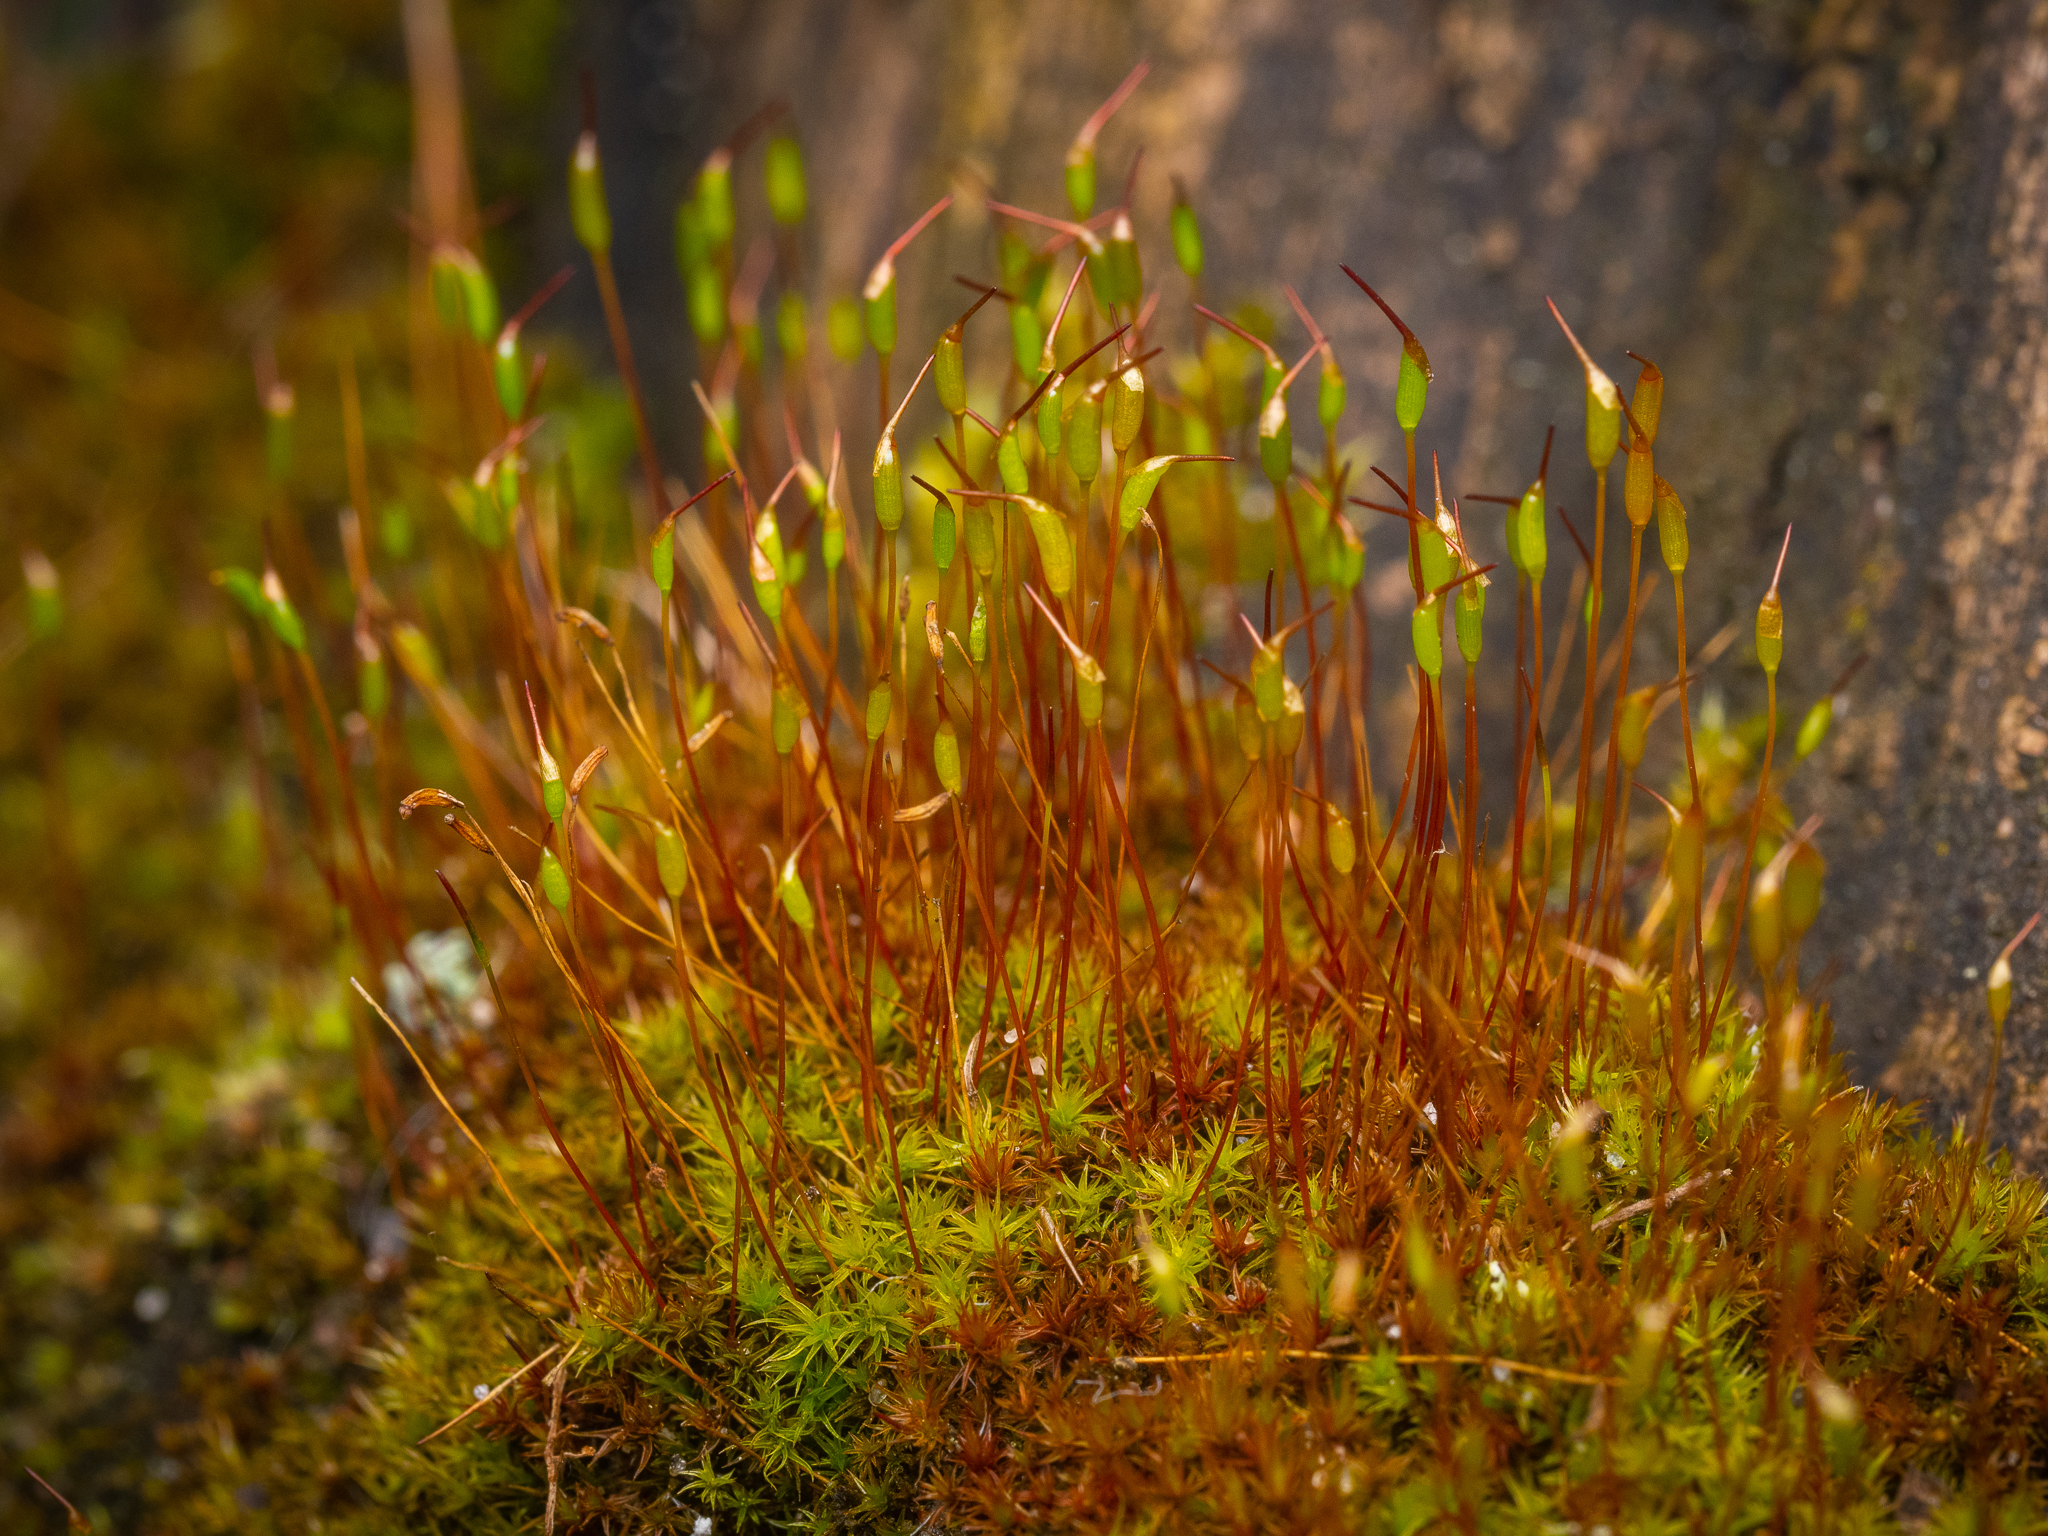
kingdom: Plantae
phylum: Bryophyta
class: Bryopsida
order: Dicranales
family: Ditrichaceae
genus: Ceratodon
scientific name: Ceratodon purpureus
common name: Redshank
